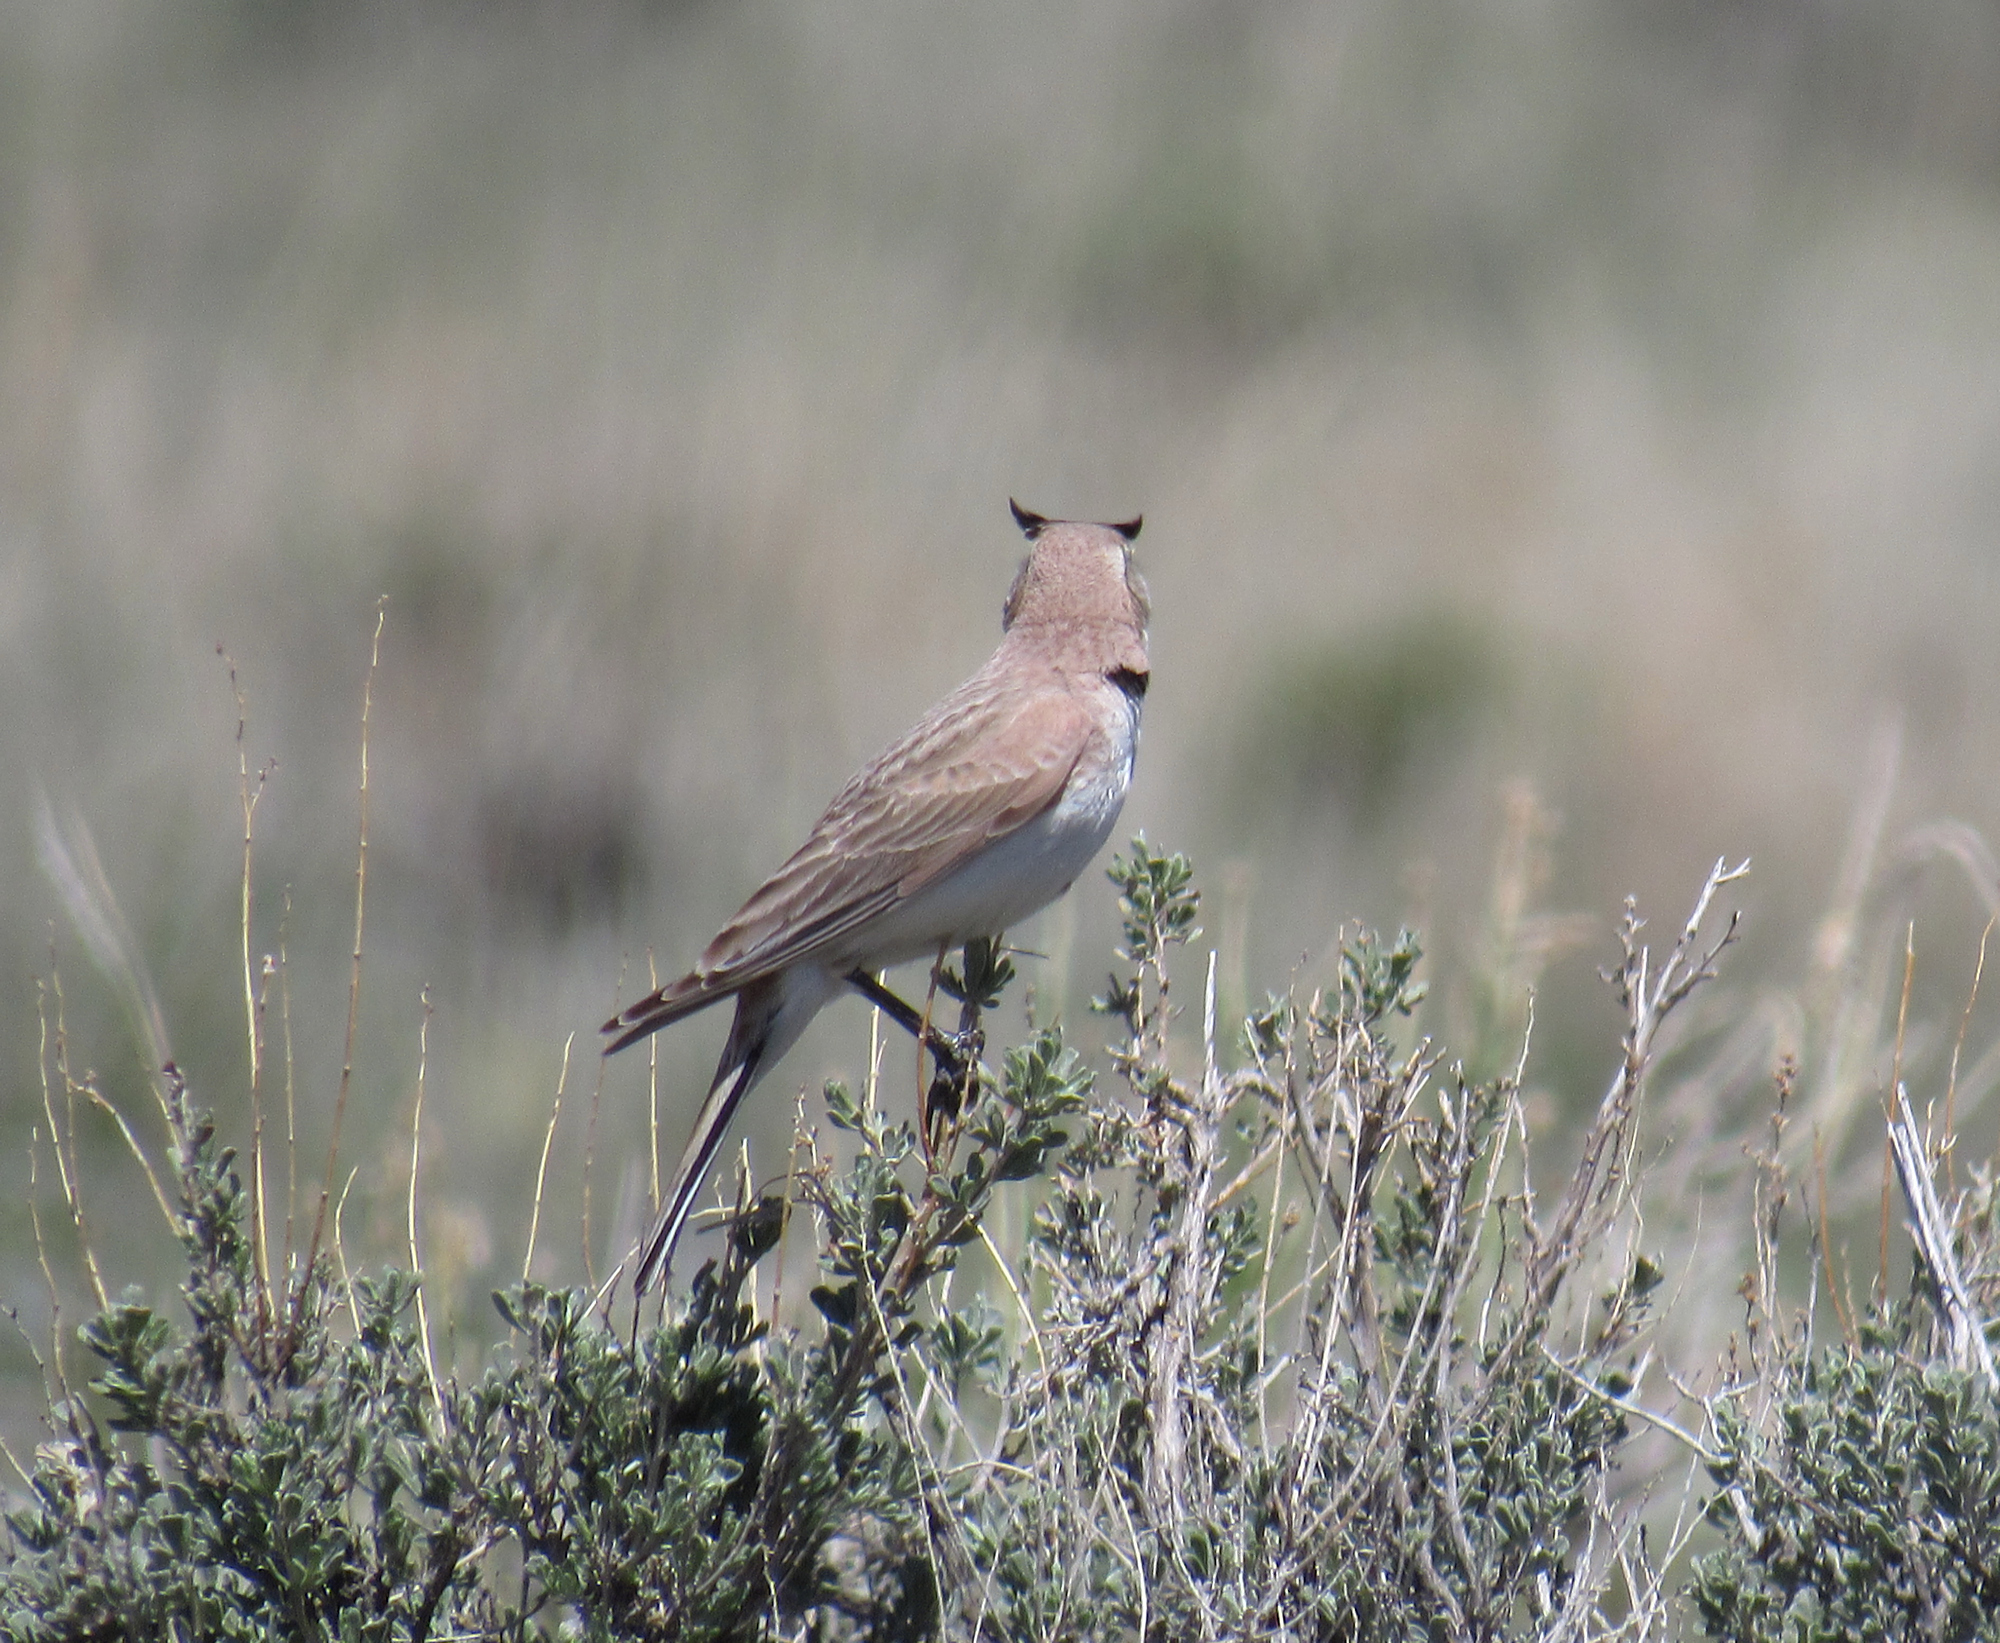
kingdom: Animalia
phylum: Chordata
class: Aves
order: Passeriformes
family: Alaudidae
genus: Eremophila
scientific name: Eremophila alpestris
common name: Horned lark
